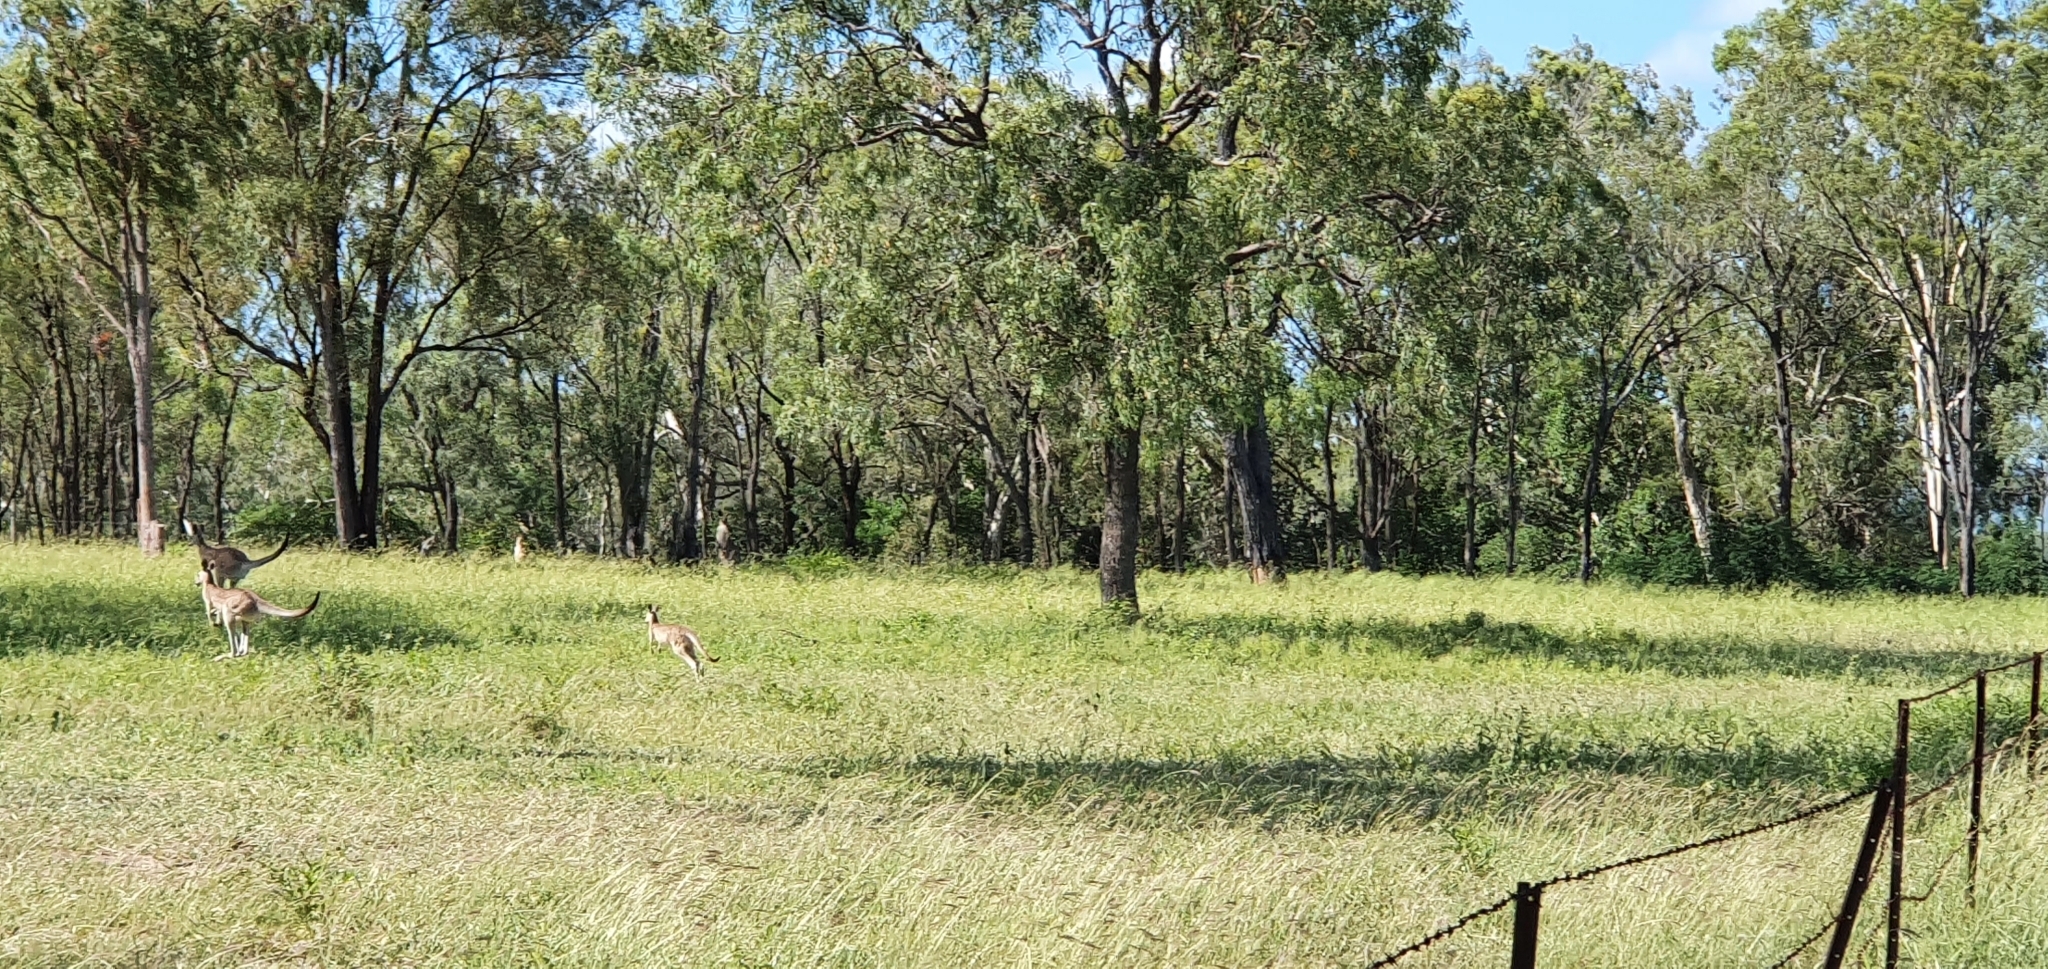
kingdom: Animalia
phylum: Chordata
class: Mammalia
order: Diprotodontia
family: Macropodidae
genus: Macropus
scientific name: Macropus giganteus
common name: Eastern grey kangaroo
